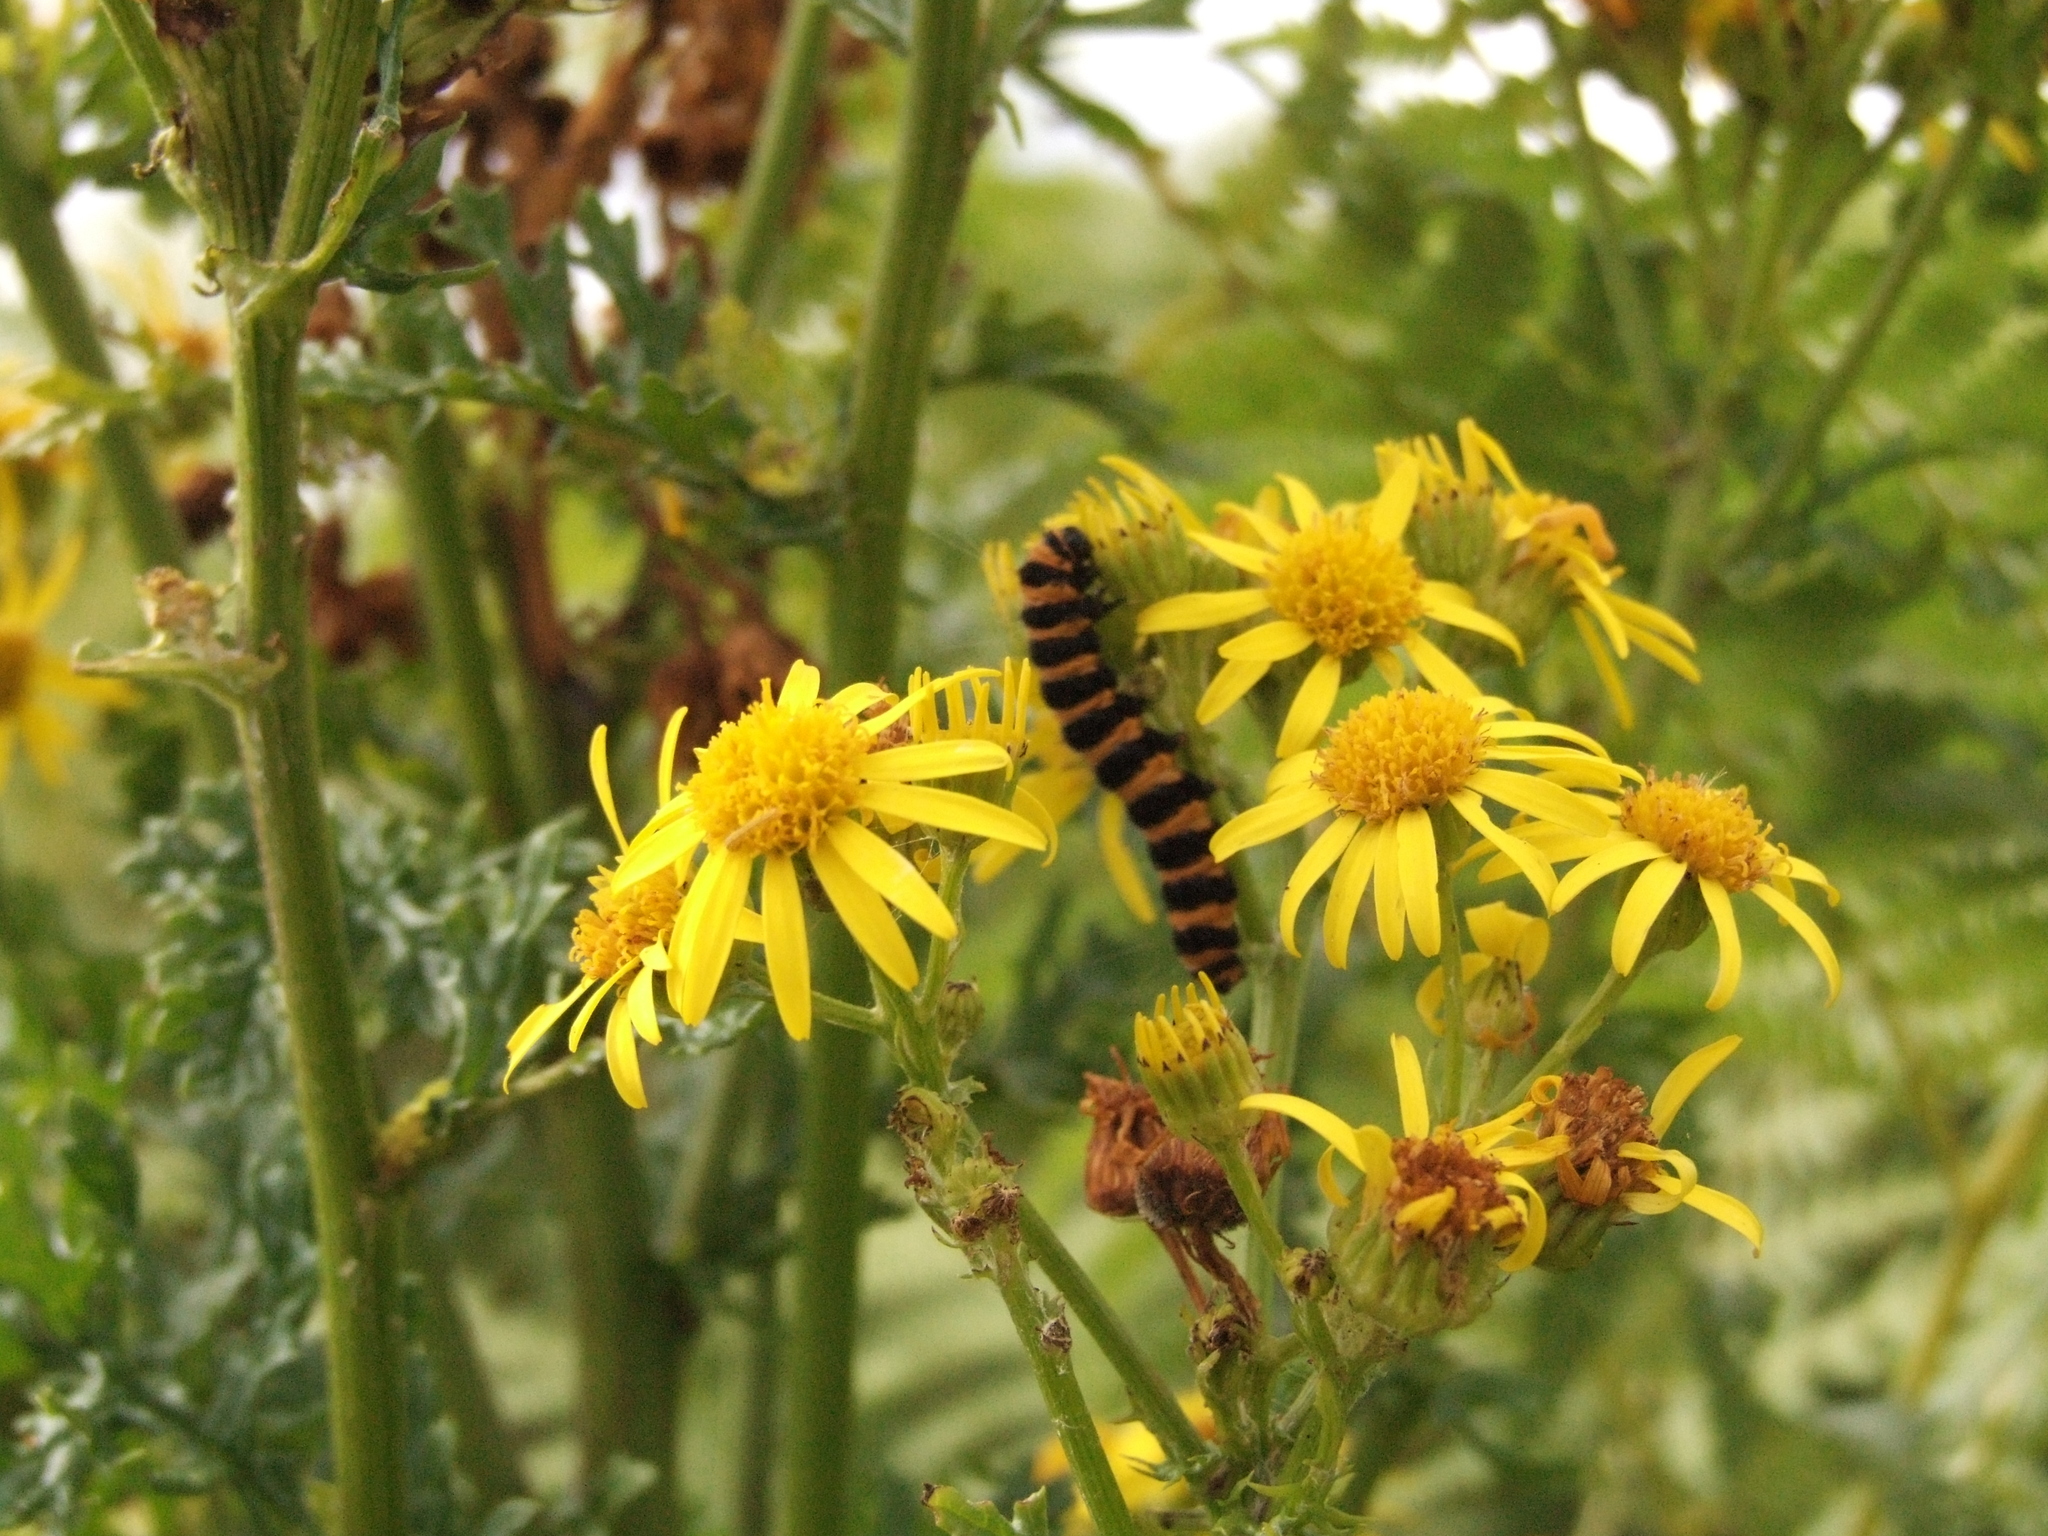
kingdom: Animalia
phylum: Arthropoda
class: Insecta
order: Lepidoptera
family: Erebidae
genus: Tyria
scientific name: Tyria jacobaeae
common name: Cinnabar
